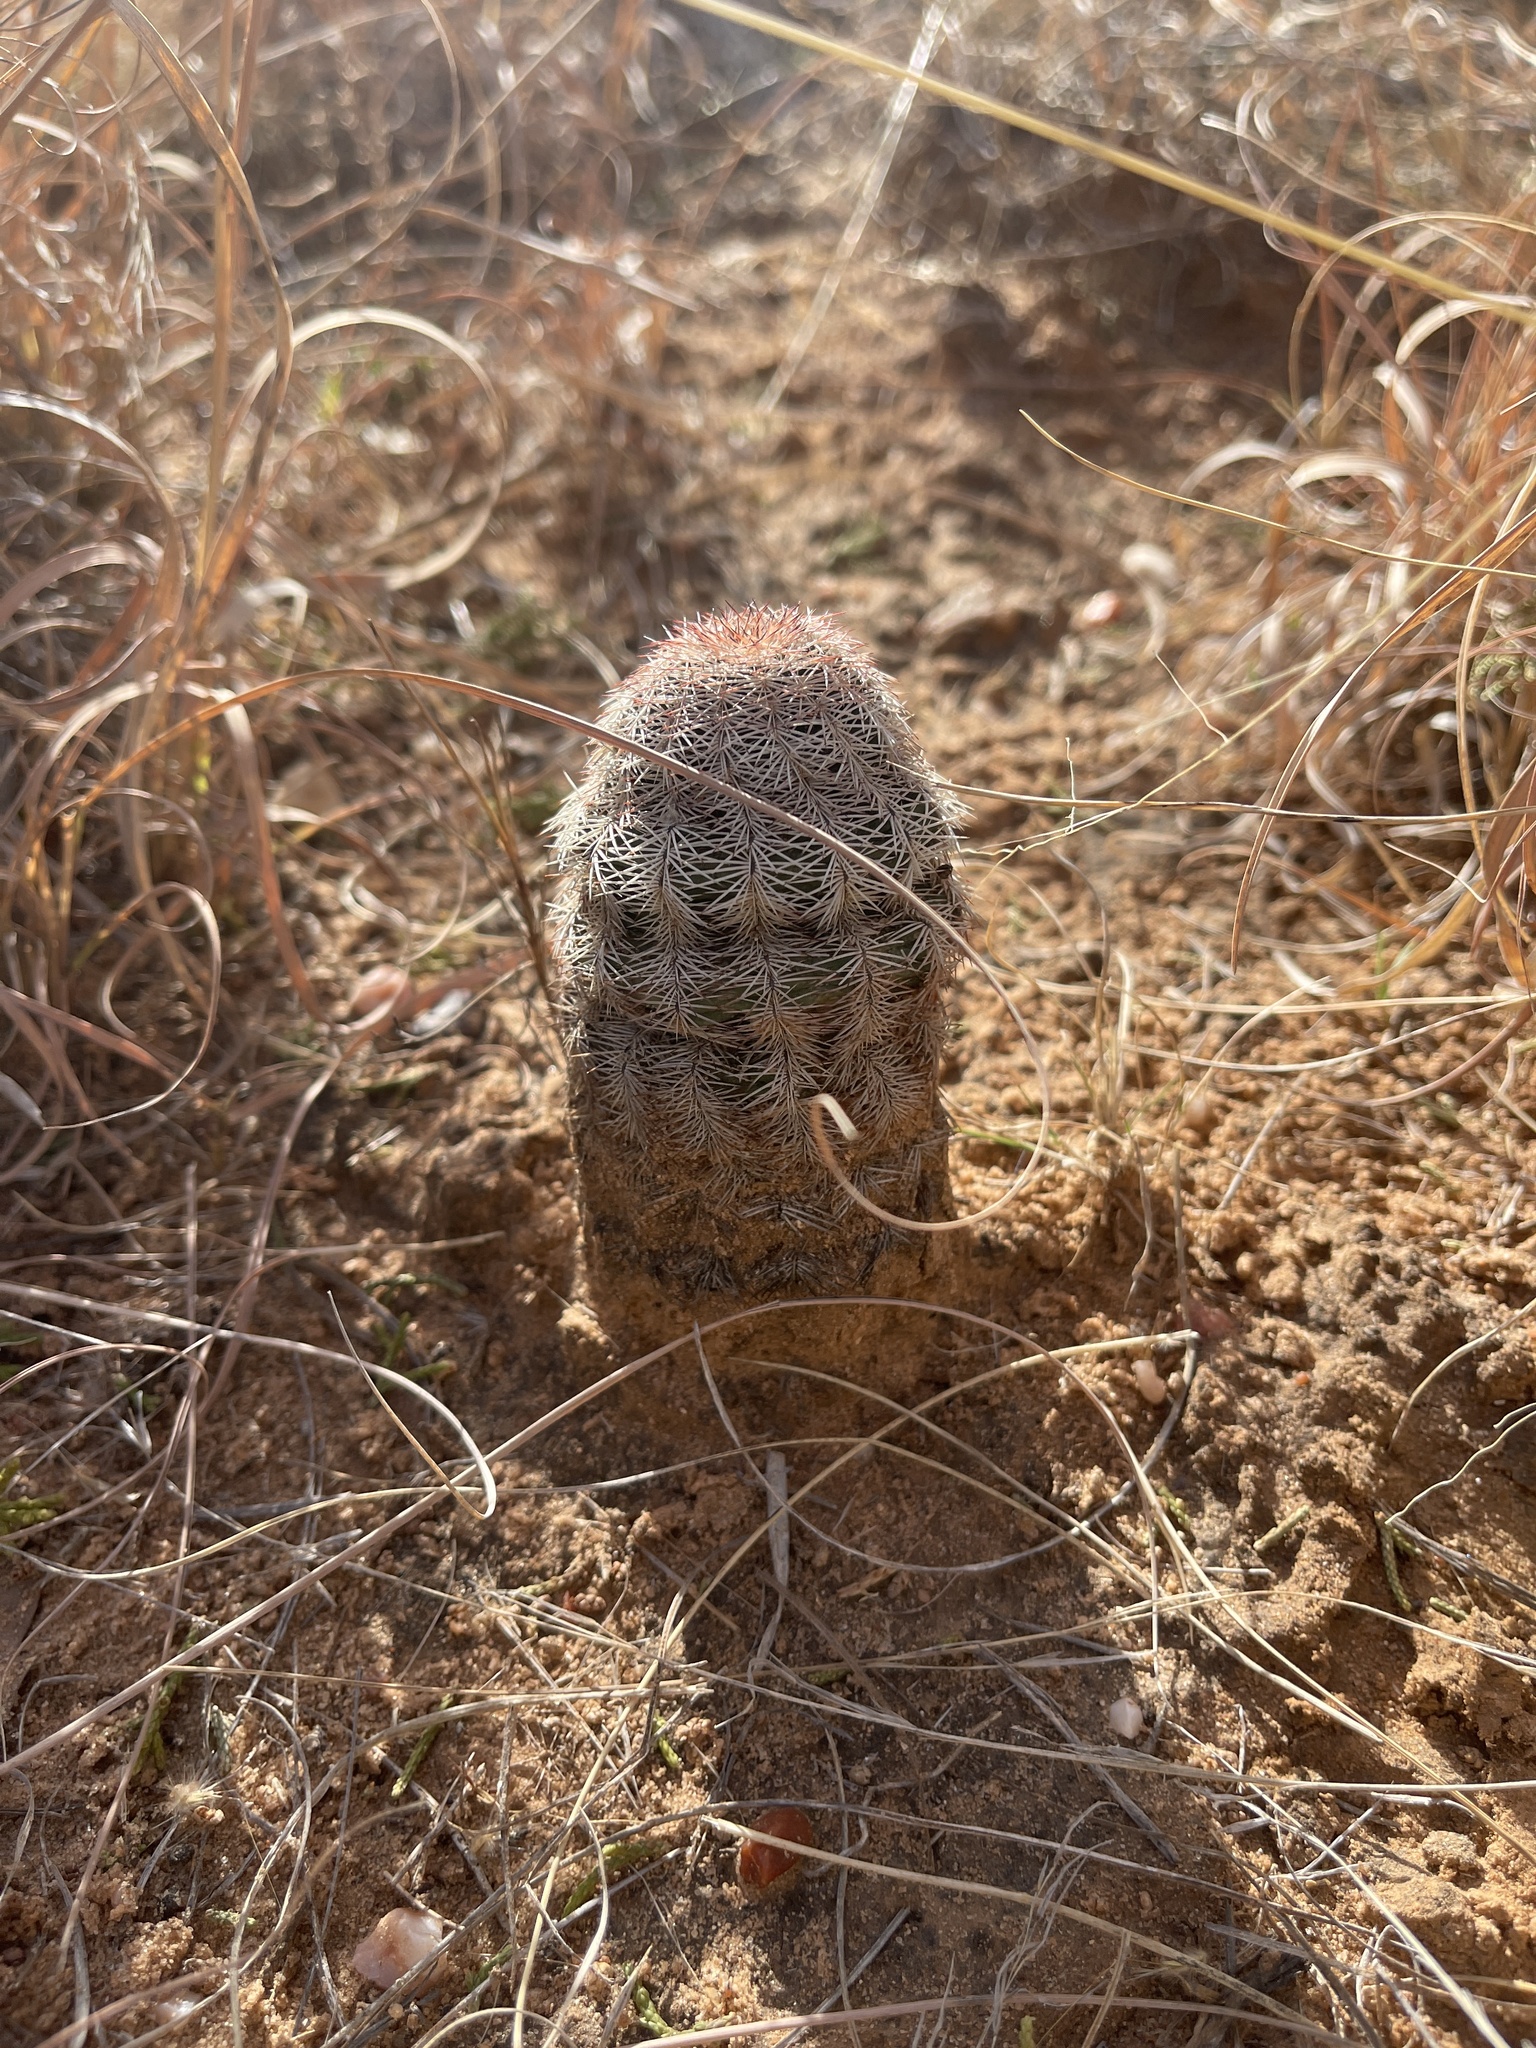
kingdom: Plantae
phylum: Tracheophyta
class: Magnoliopsida
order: Caryophyllales
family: Cactaceae
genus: Echinocereus
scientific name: Echinocereus reichenbachii
